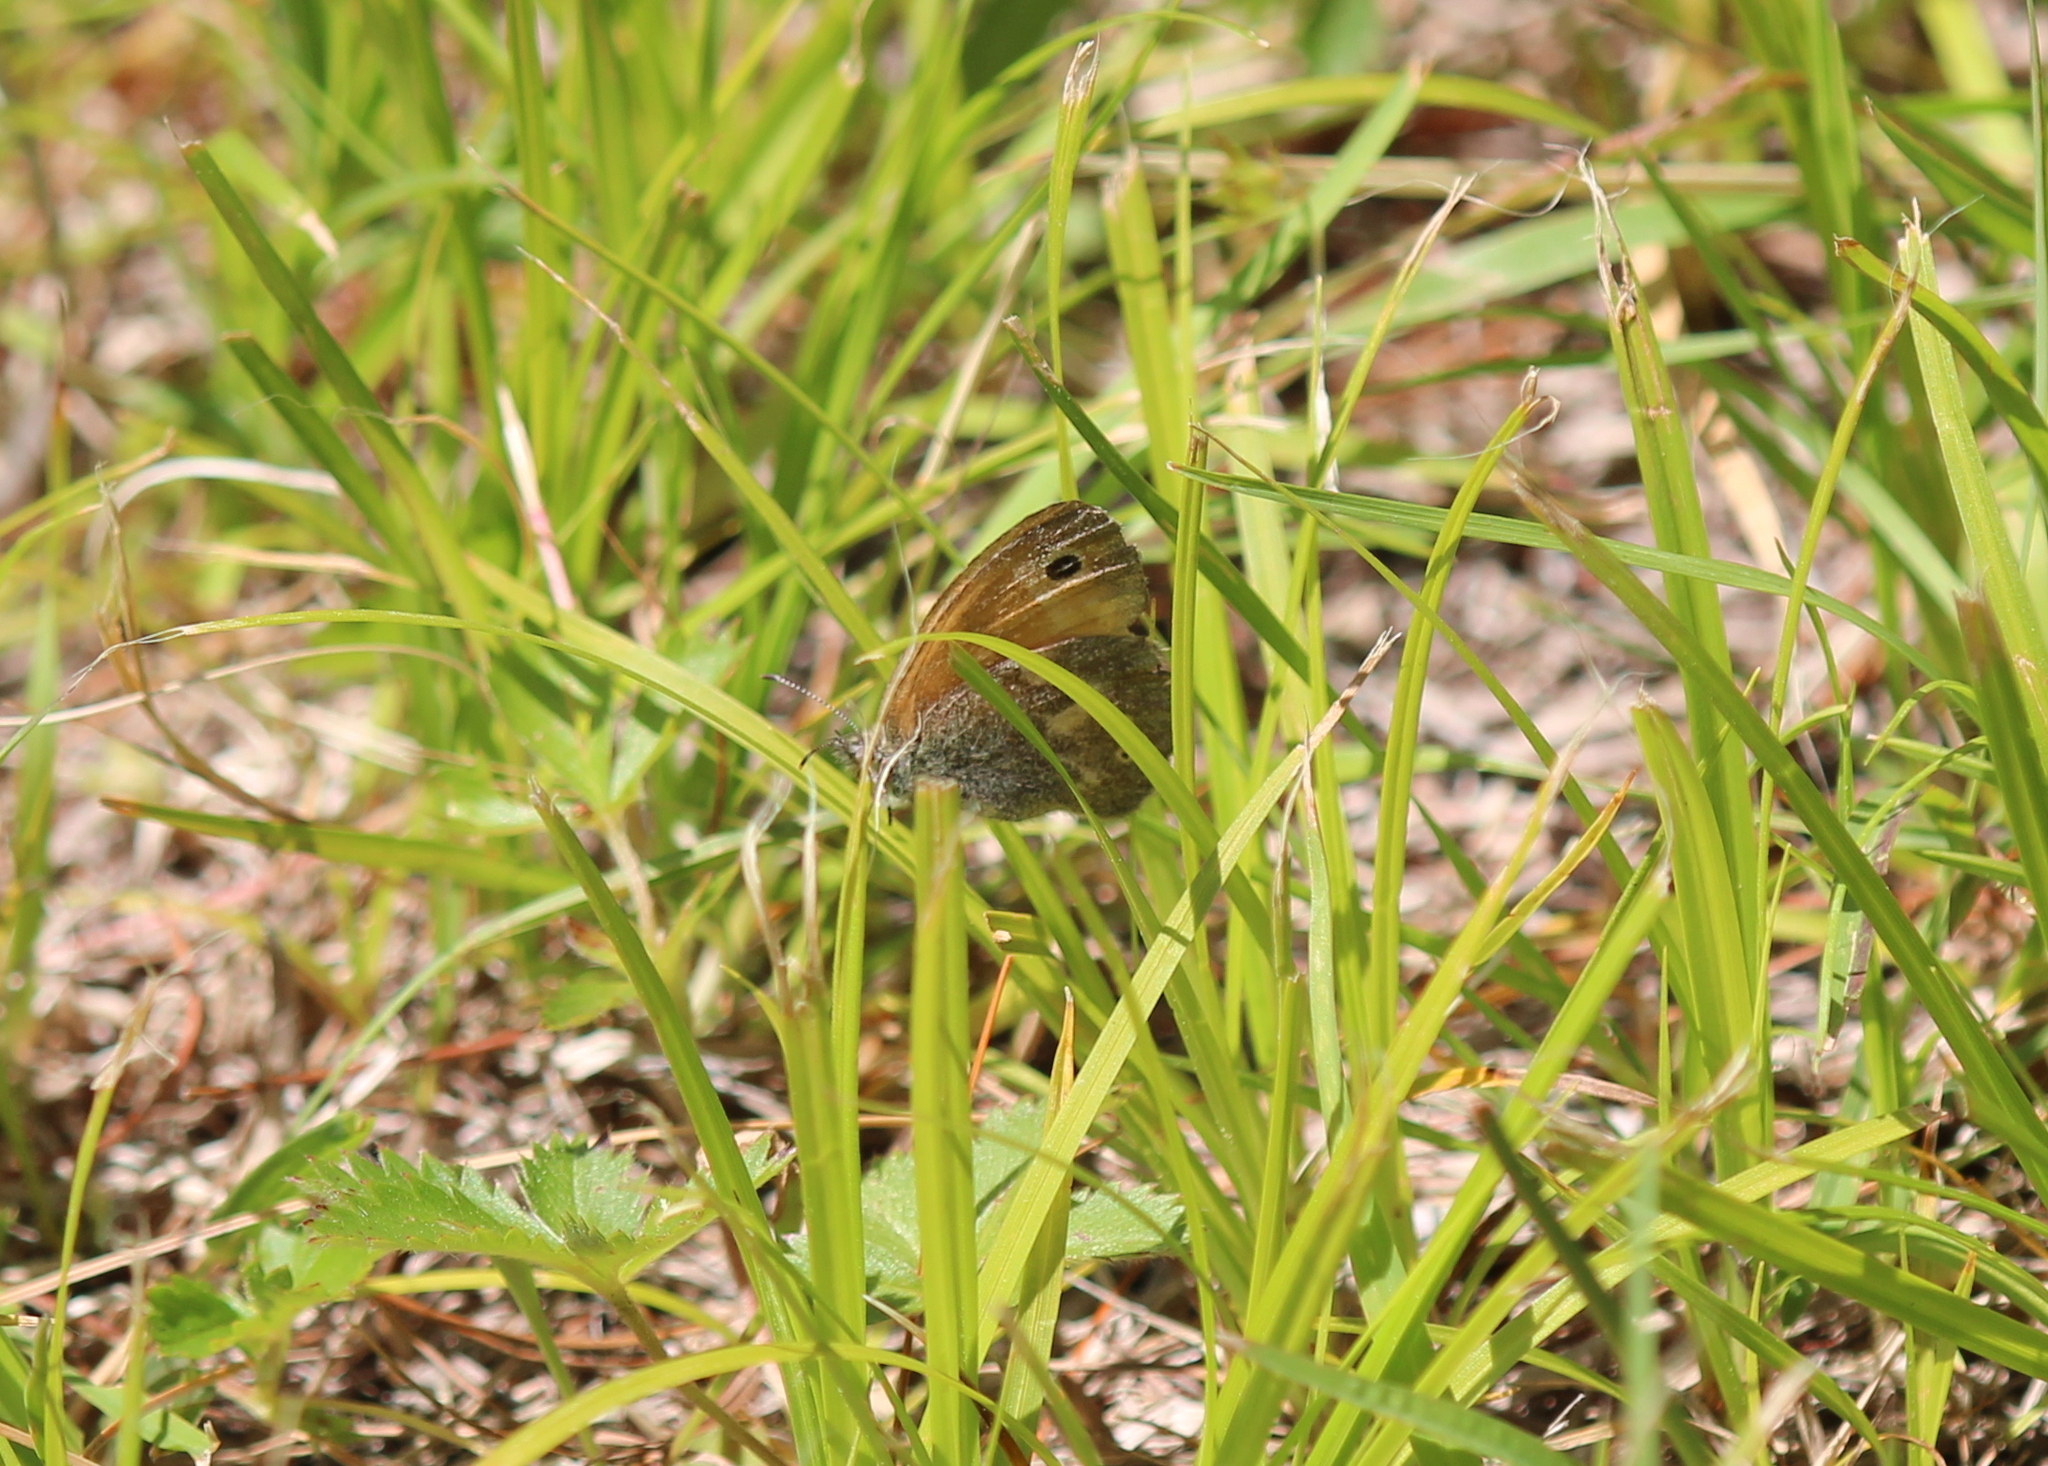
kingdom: Animalia
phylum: Arthropoda
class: Insecta
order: Lepidoptera
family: Nymphalidae
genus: Coenonympha
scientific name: Coenonympha california
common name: Common ringlet
